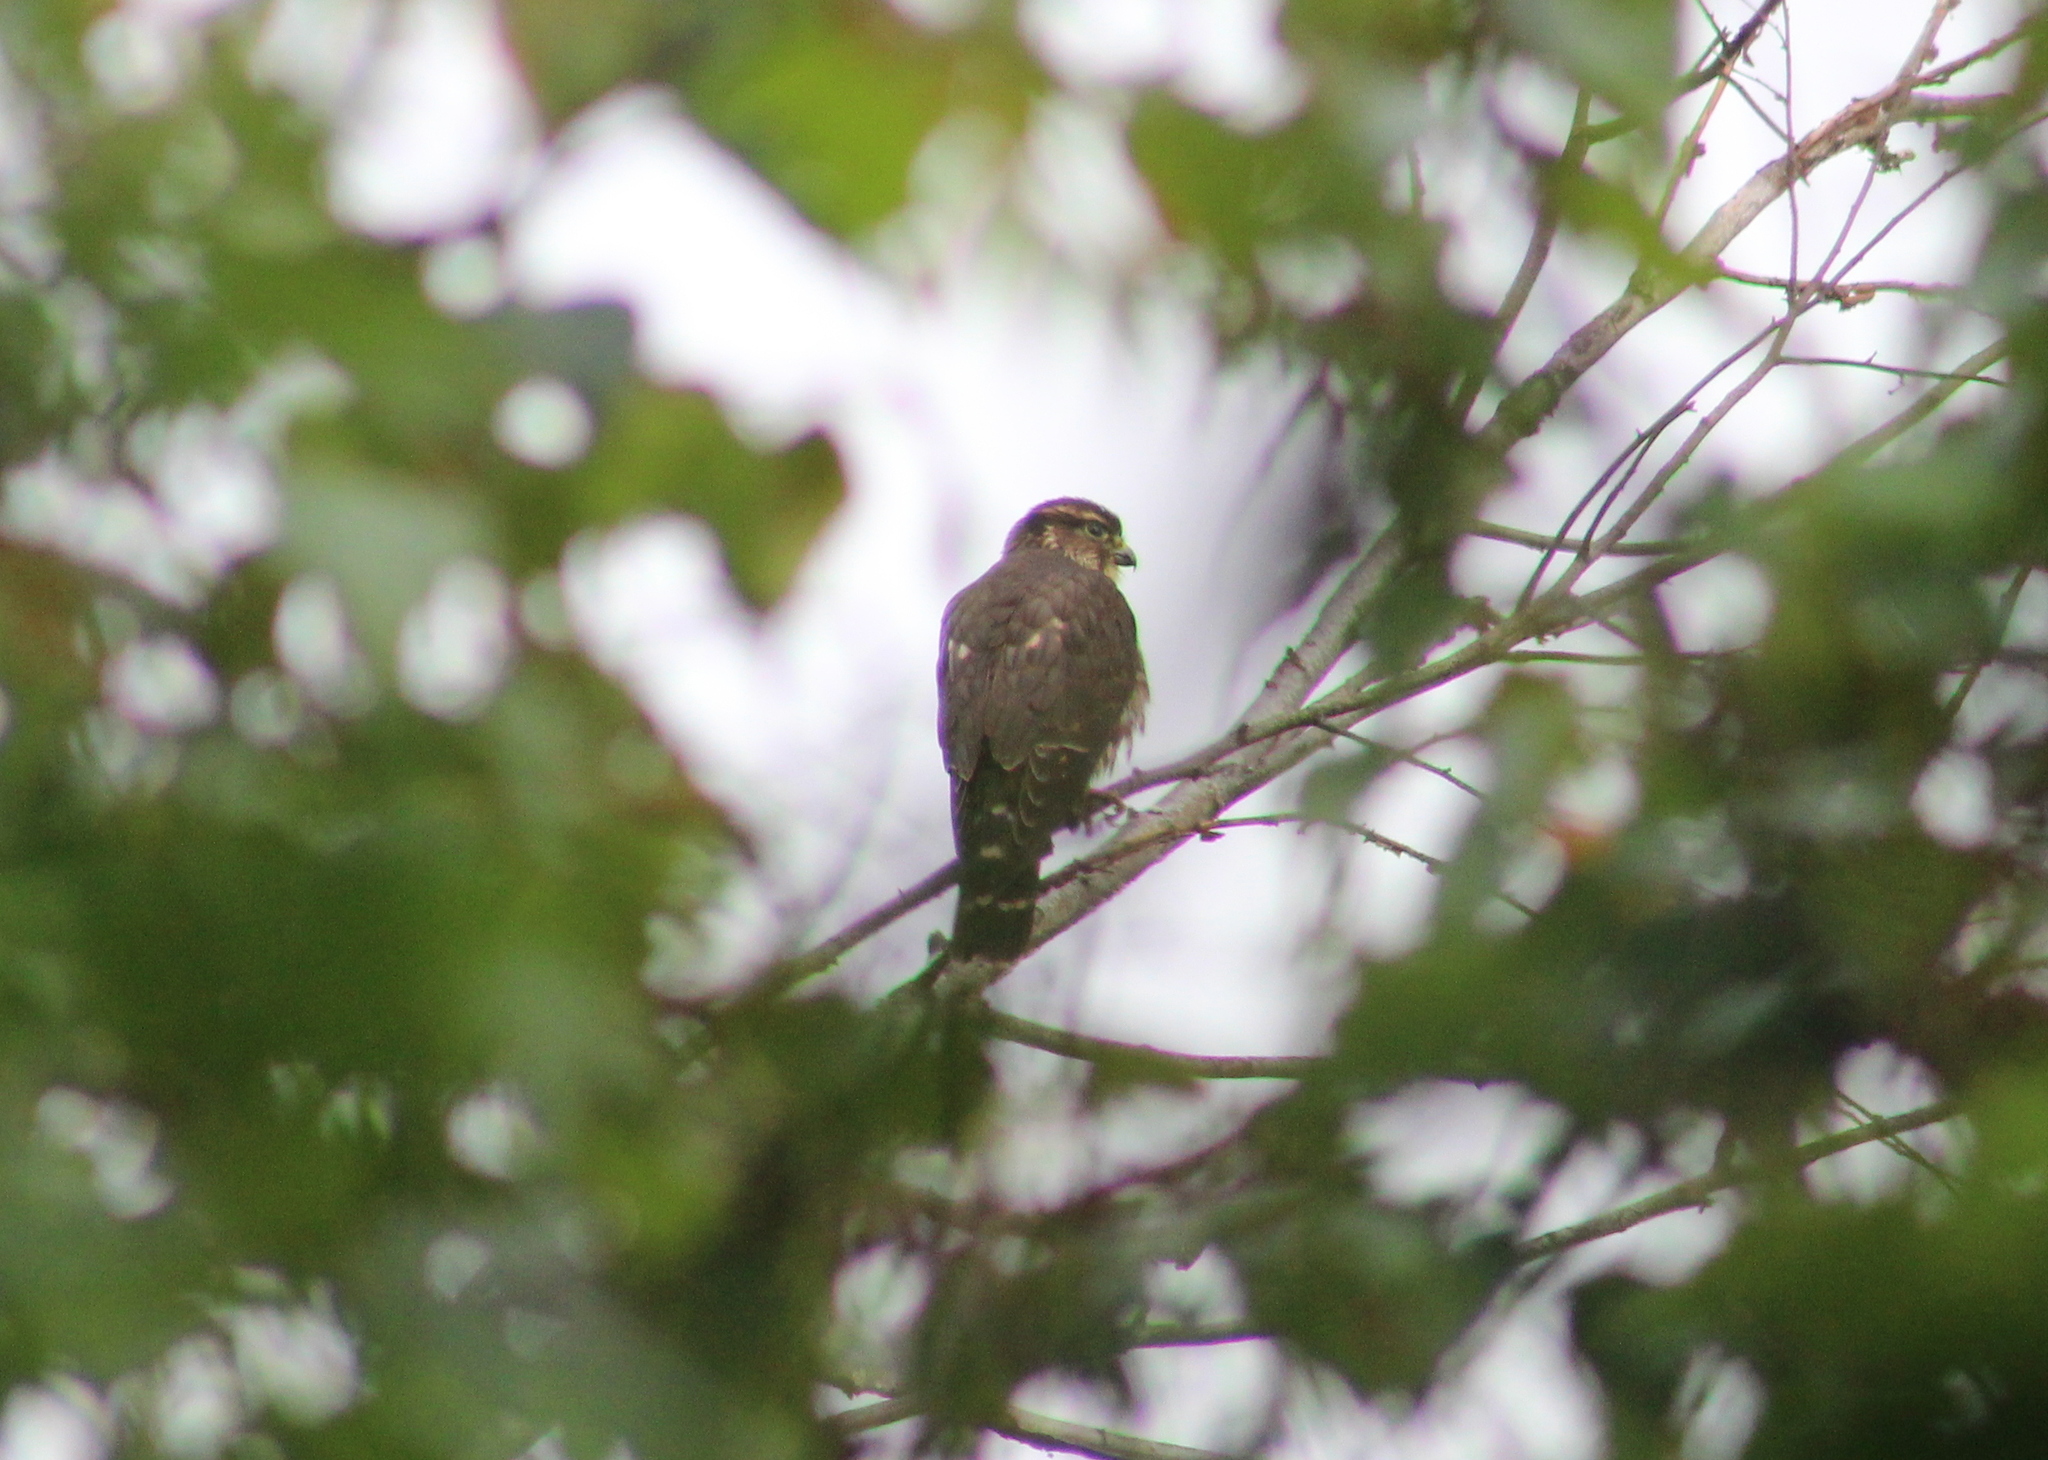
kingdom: Animalia
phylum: Chordata
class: Aves
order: Falconiformes
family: Falconidae
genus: Falco
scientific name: Falco columbarius
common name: Merlin
